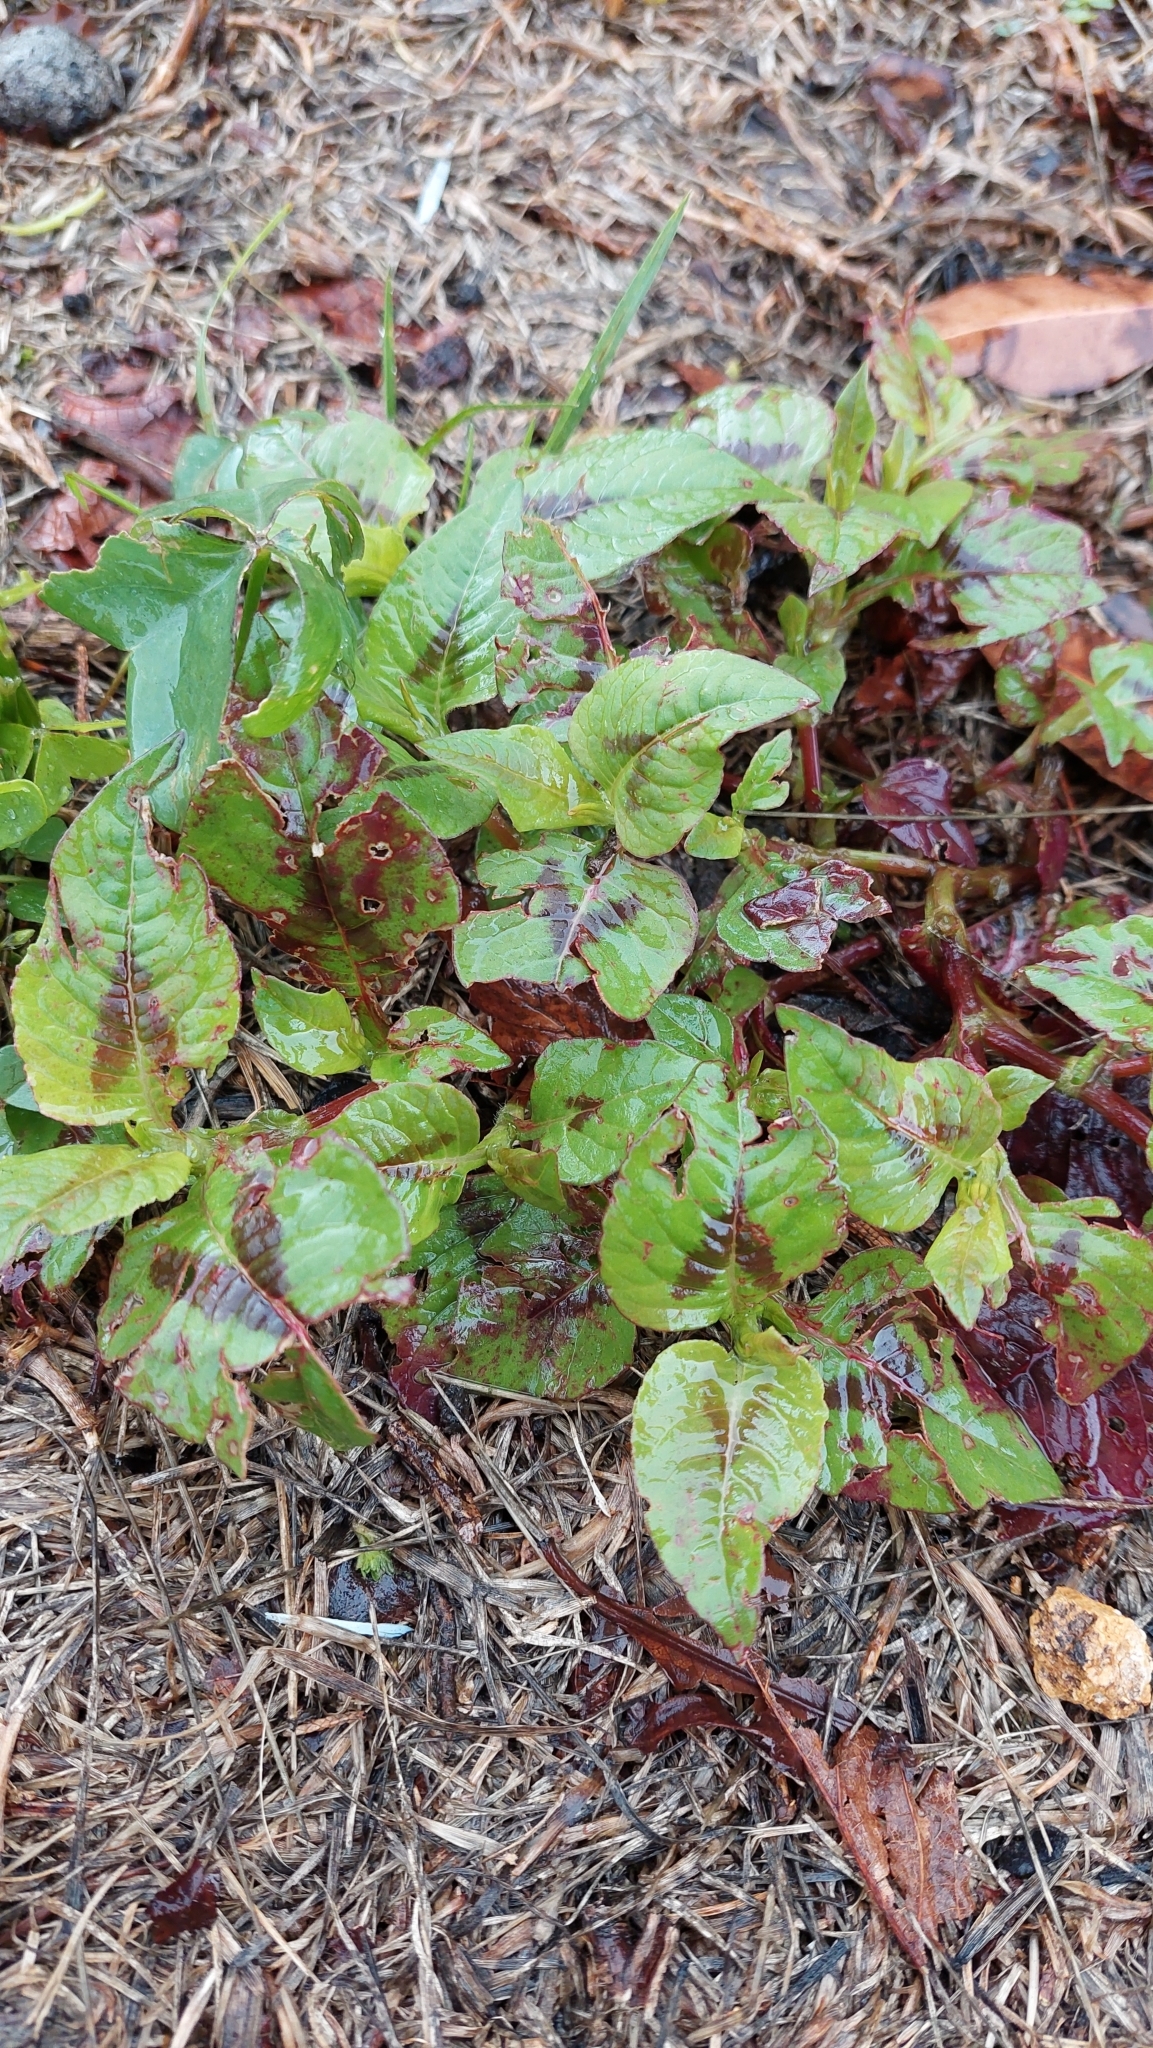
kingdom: Plantae
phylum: Tracheophyta
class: Magnoliopsida
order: Caryophyllales
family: Polygonaceae
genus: Persicaria
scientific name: Persicaria nepalensis
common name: Nepal persicaria
